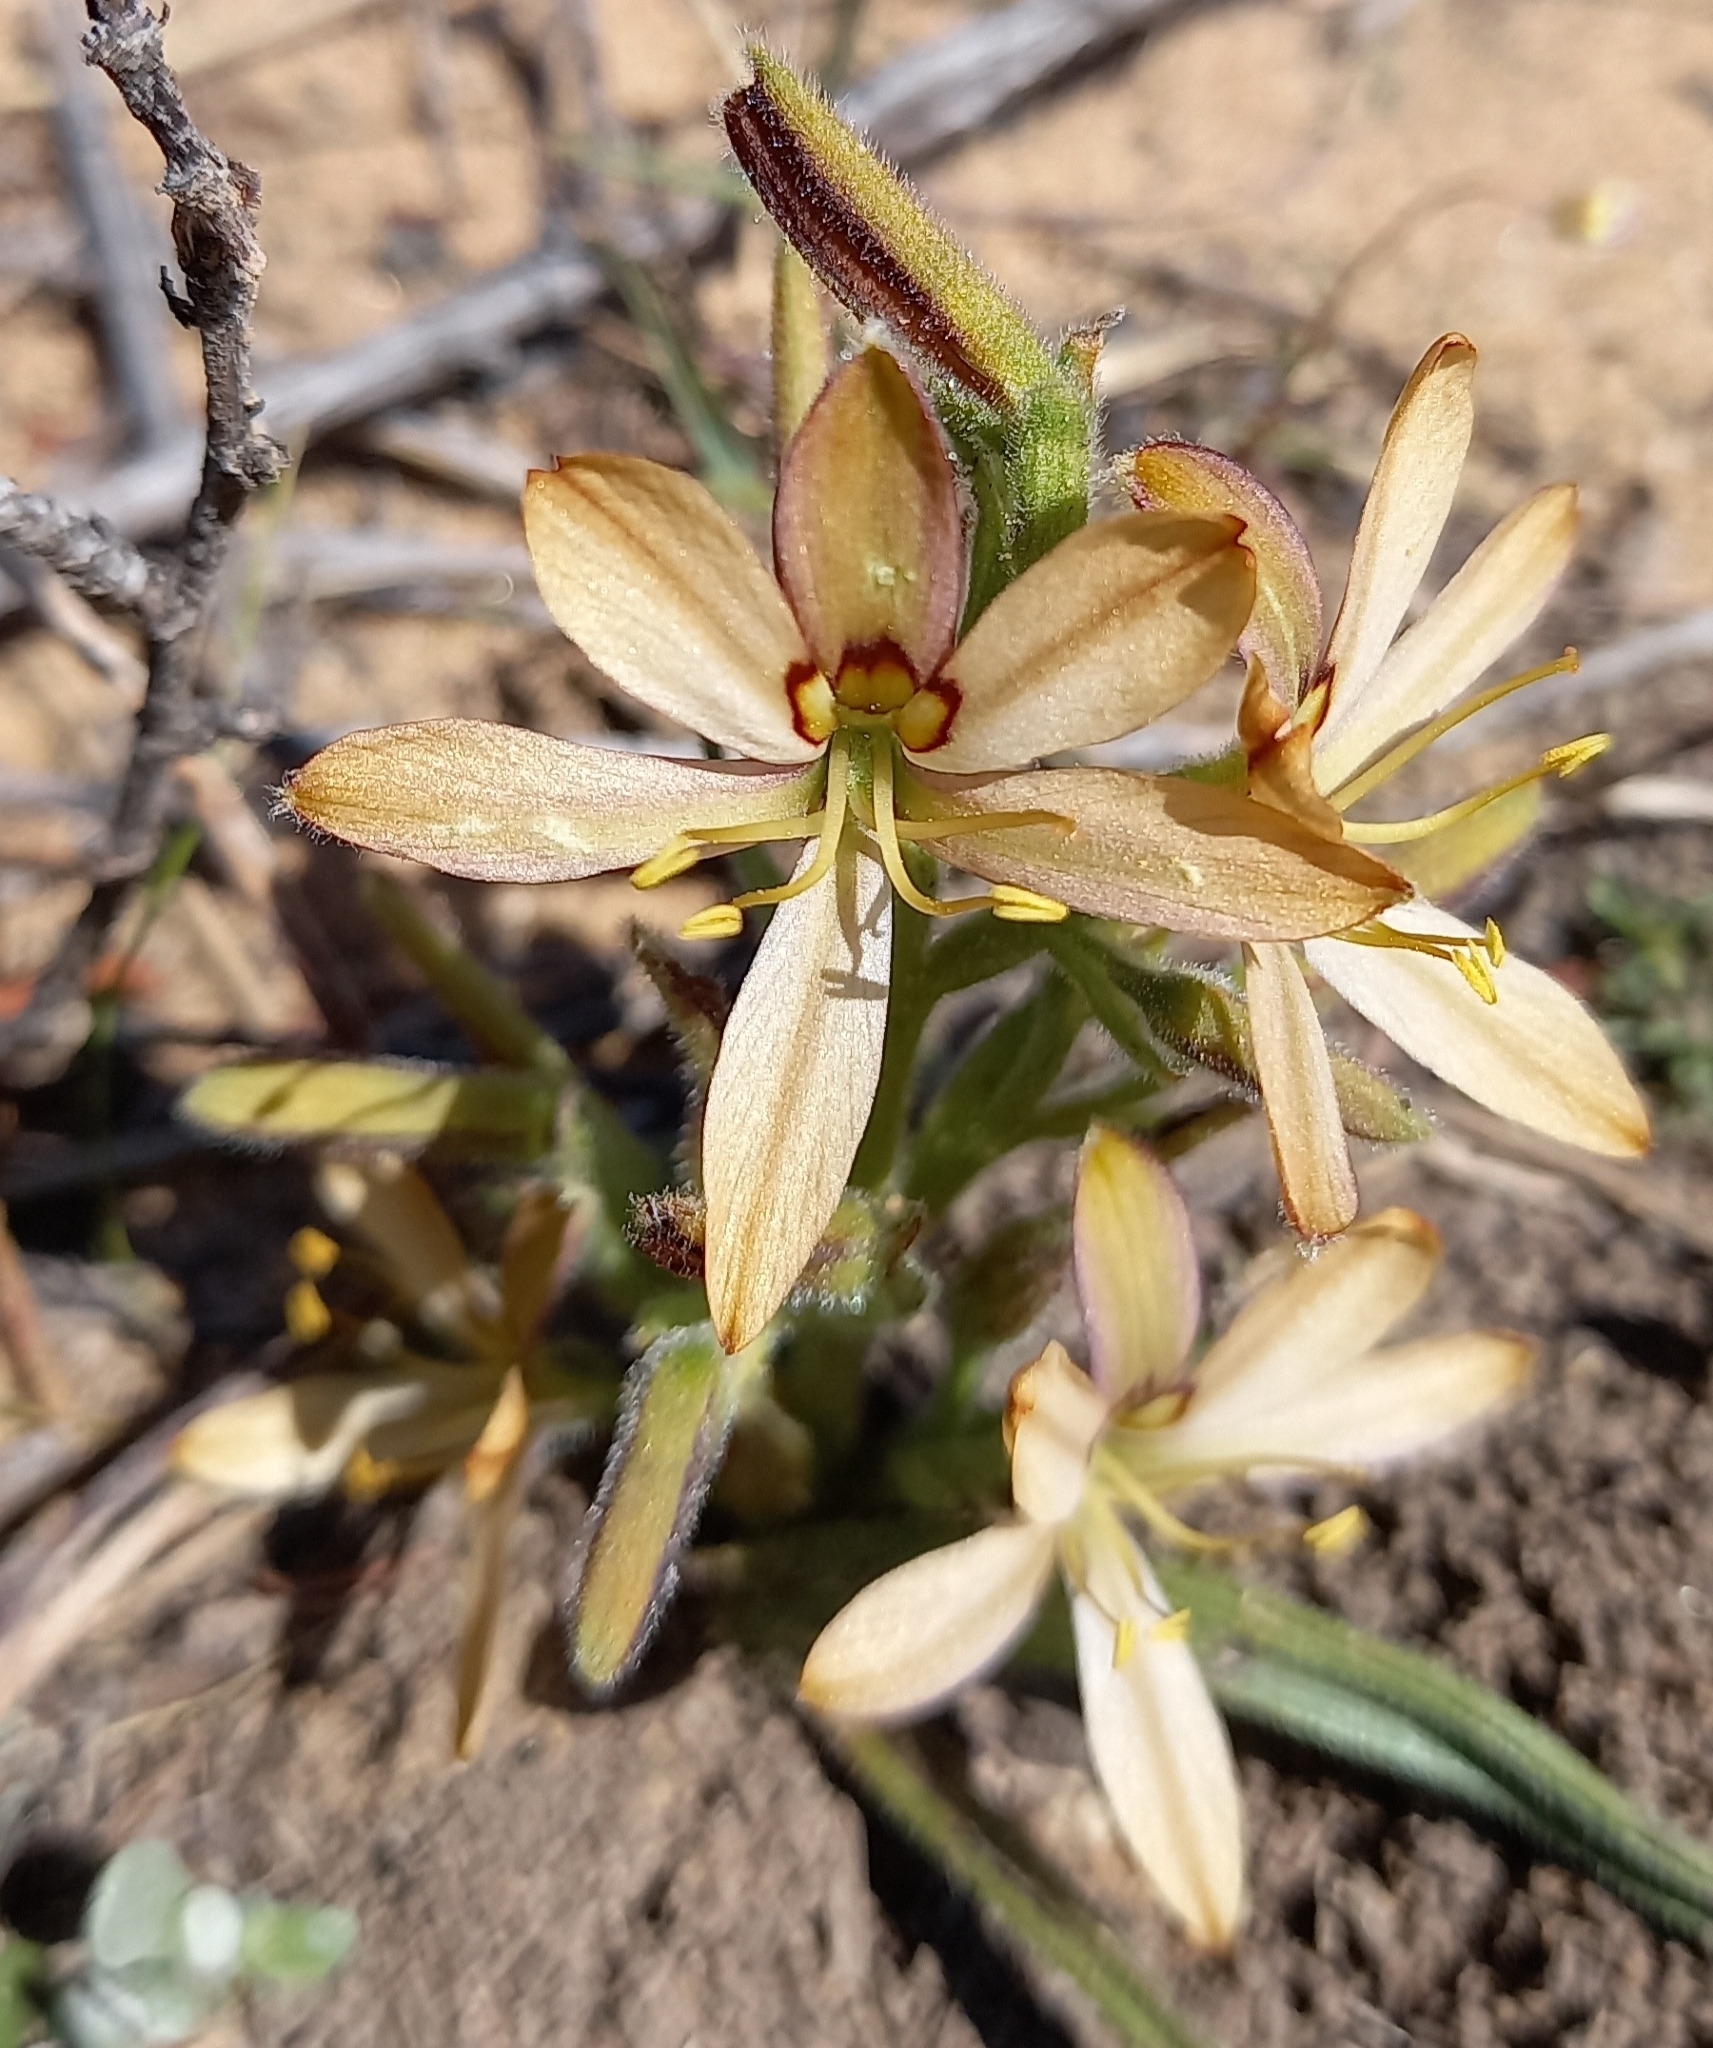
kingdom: Plantae
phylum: Tracheophyta
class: Liliopsida
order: Commelinales
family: Haemodoraceae
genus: Wachendorfia
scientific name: Wachendorfia multiflora
